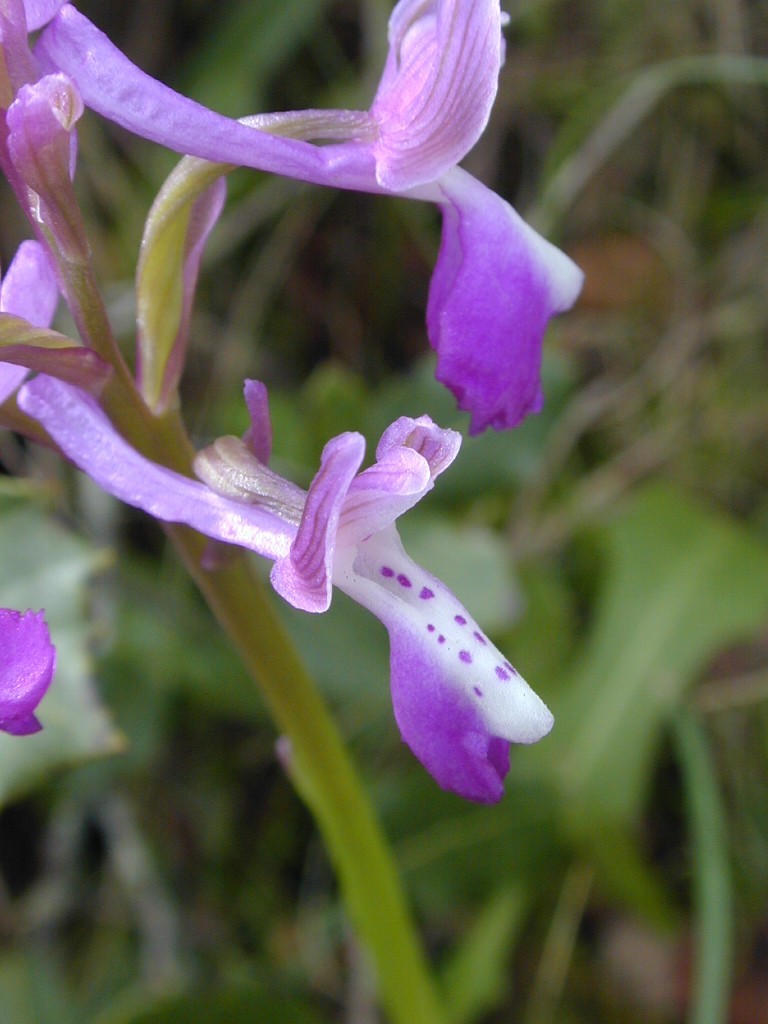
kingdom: Plantae
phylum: Tracheophyta
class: Liliopsida
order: Asparagales
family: Orchidaceae
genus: Anacamptis
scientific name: Anacamptis morio
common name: Green-winged orchid
